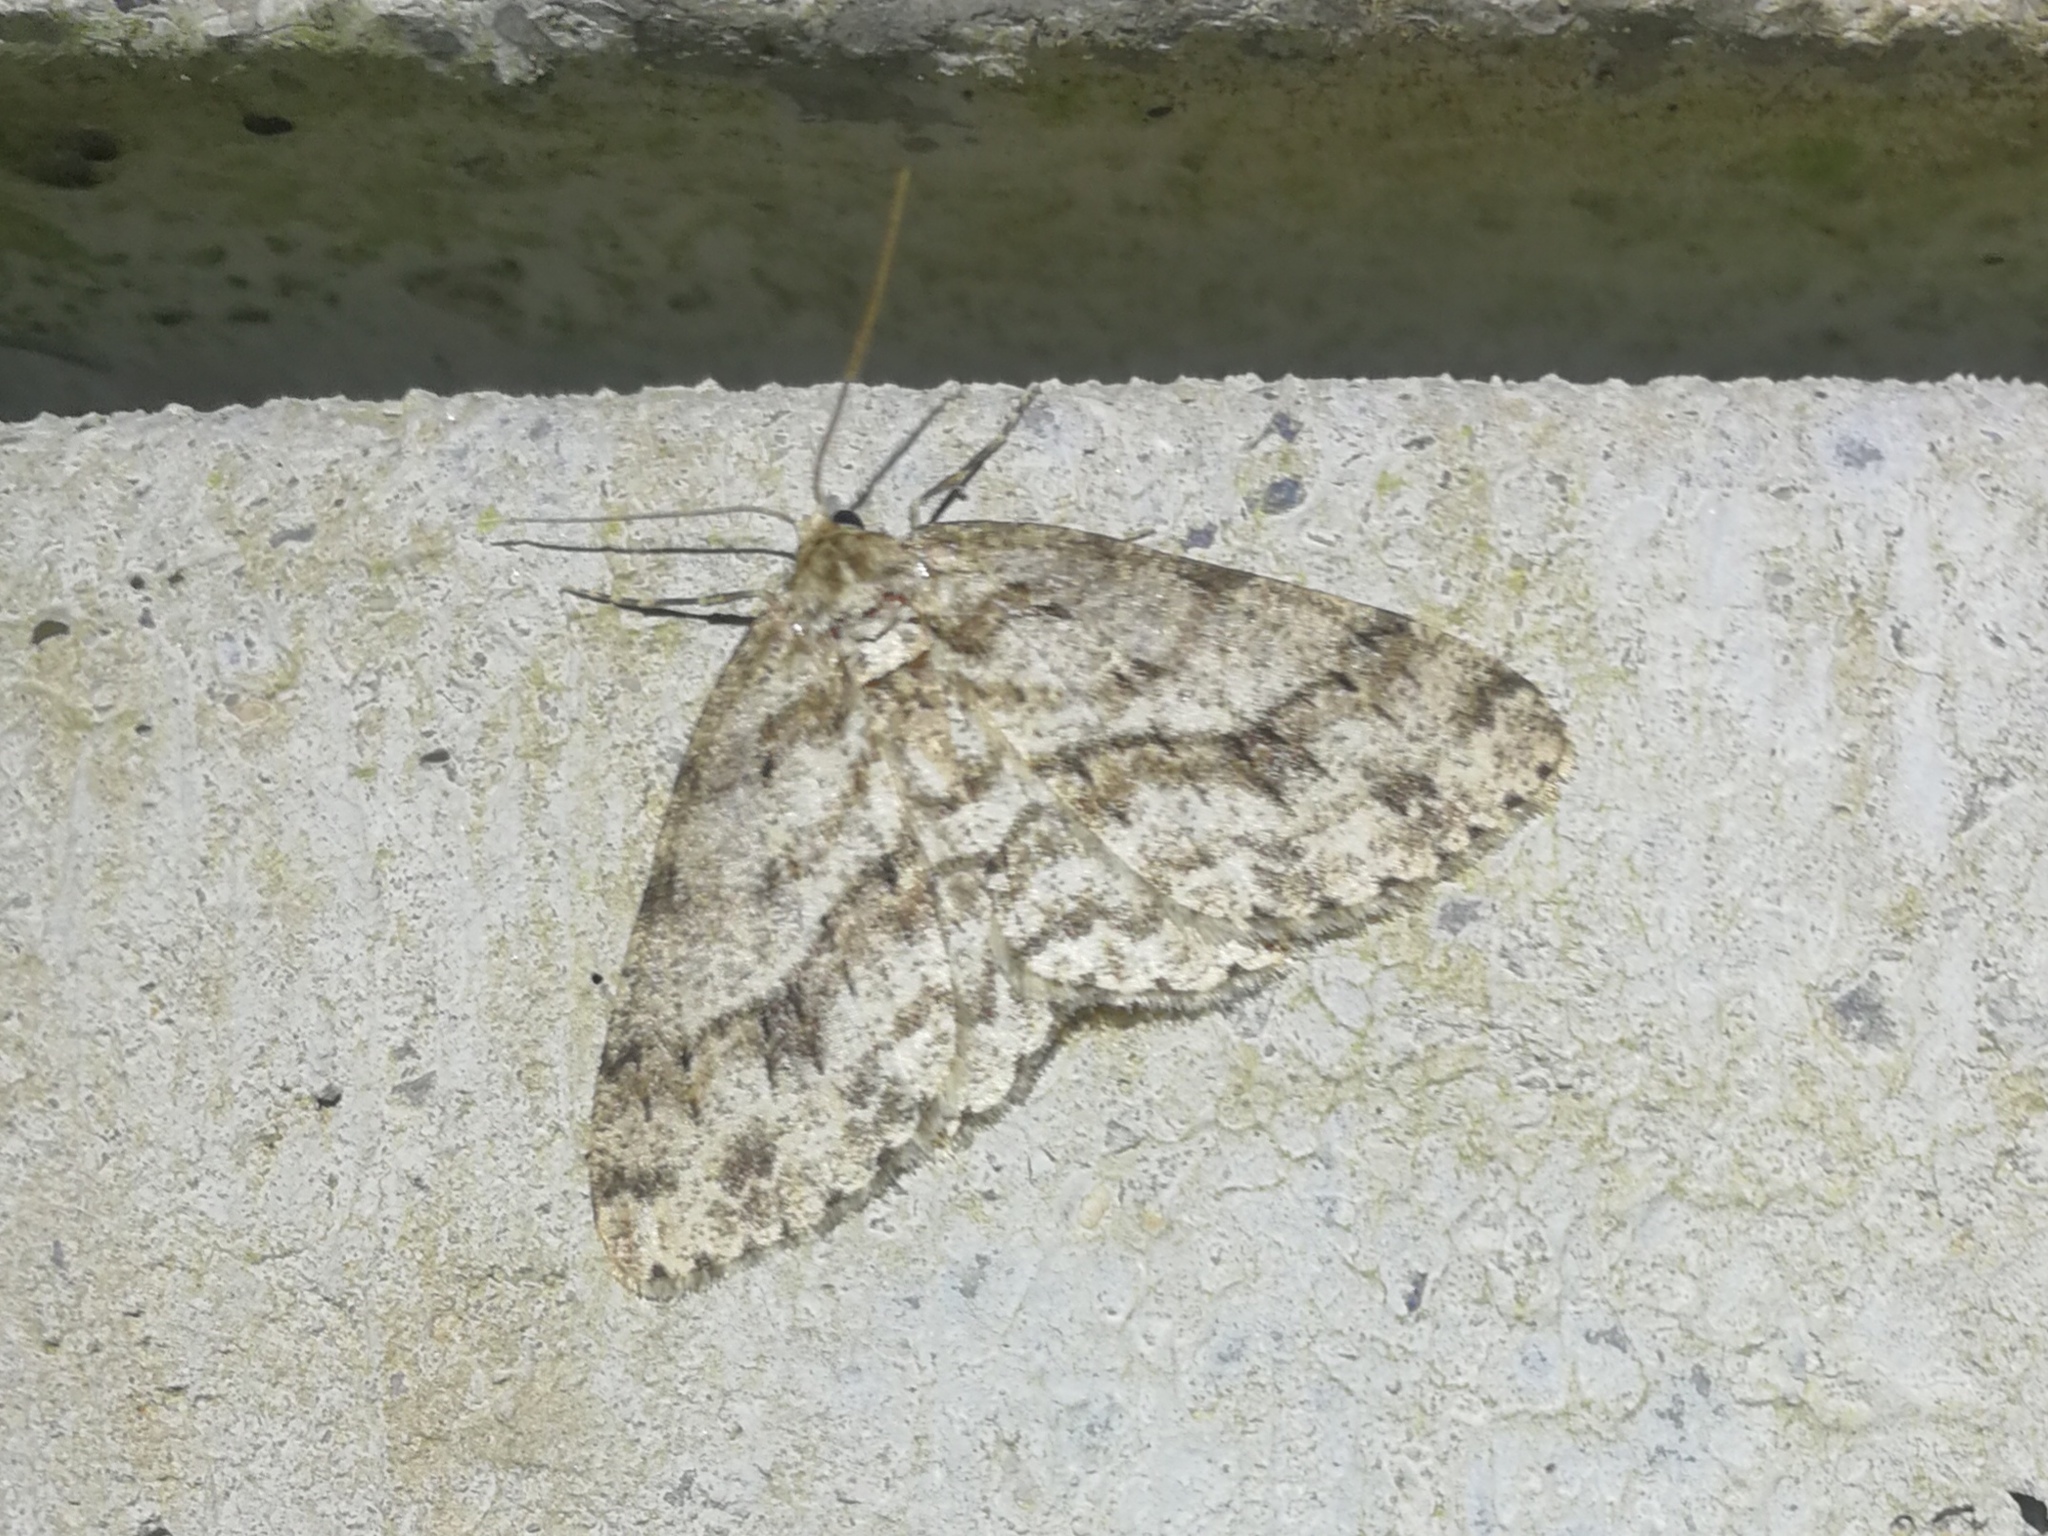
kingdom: Animalia
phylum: Arthropoda
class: Insecta
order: Lepidoptera
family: Geometridae
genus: Ectropis
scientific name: Ectropis crepuscularia
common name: Engrailed
